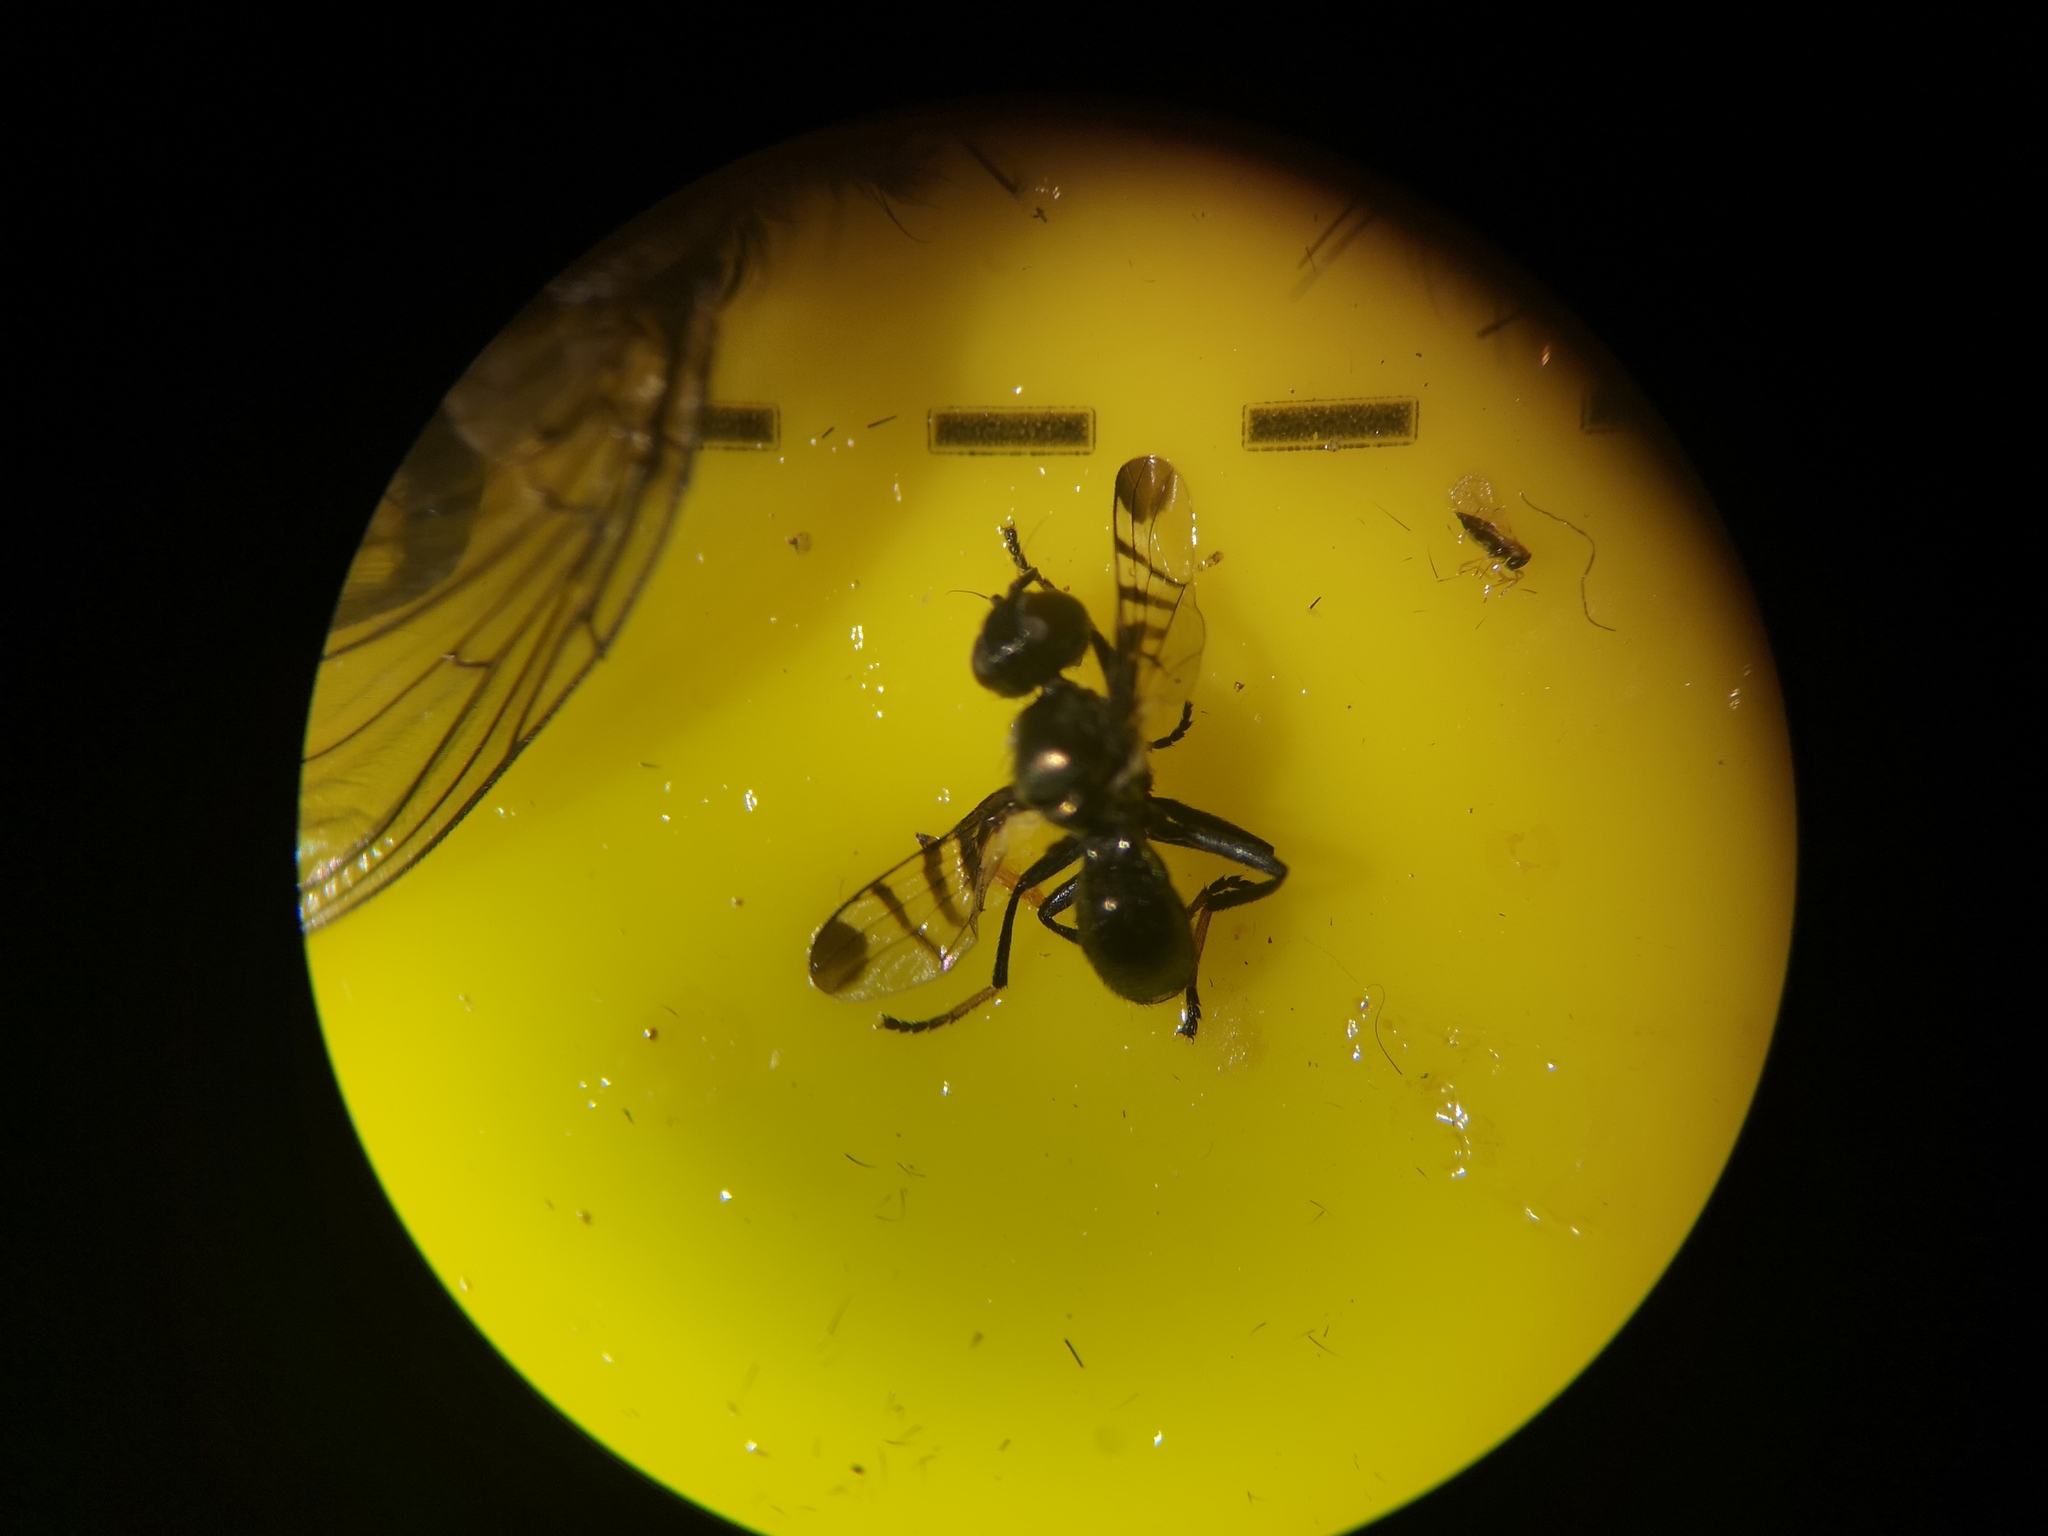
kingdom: Animalia
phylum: Arthropoda
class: Insecta
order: Diptera
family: Platystomatidae
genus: Rivellia
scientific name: Rivellia syngenesiae
